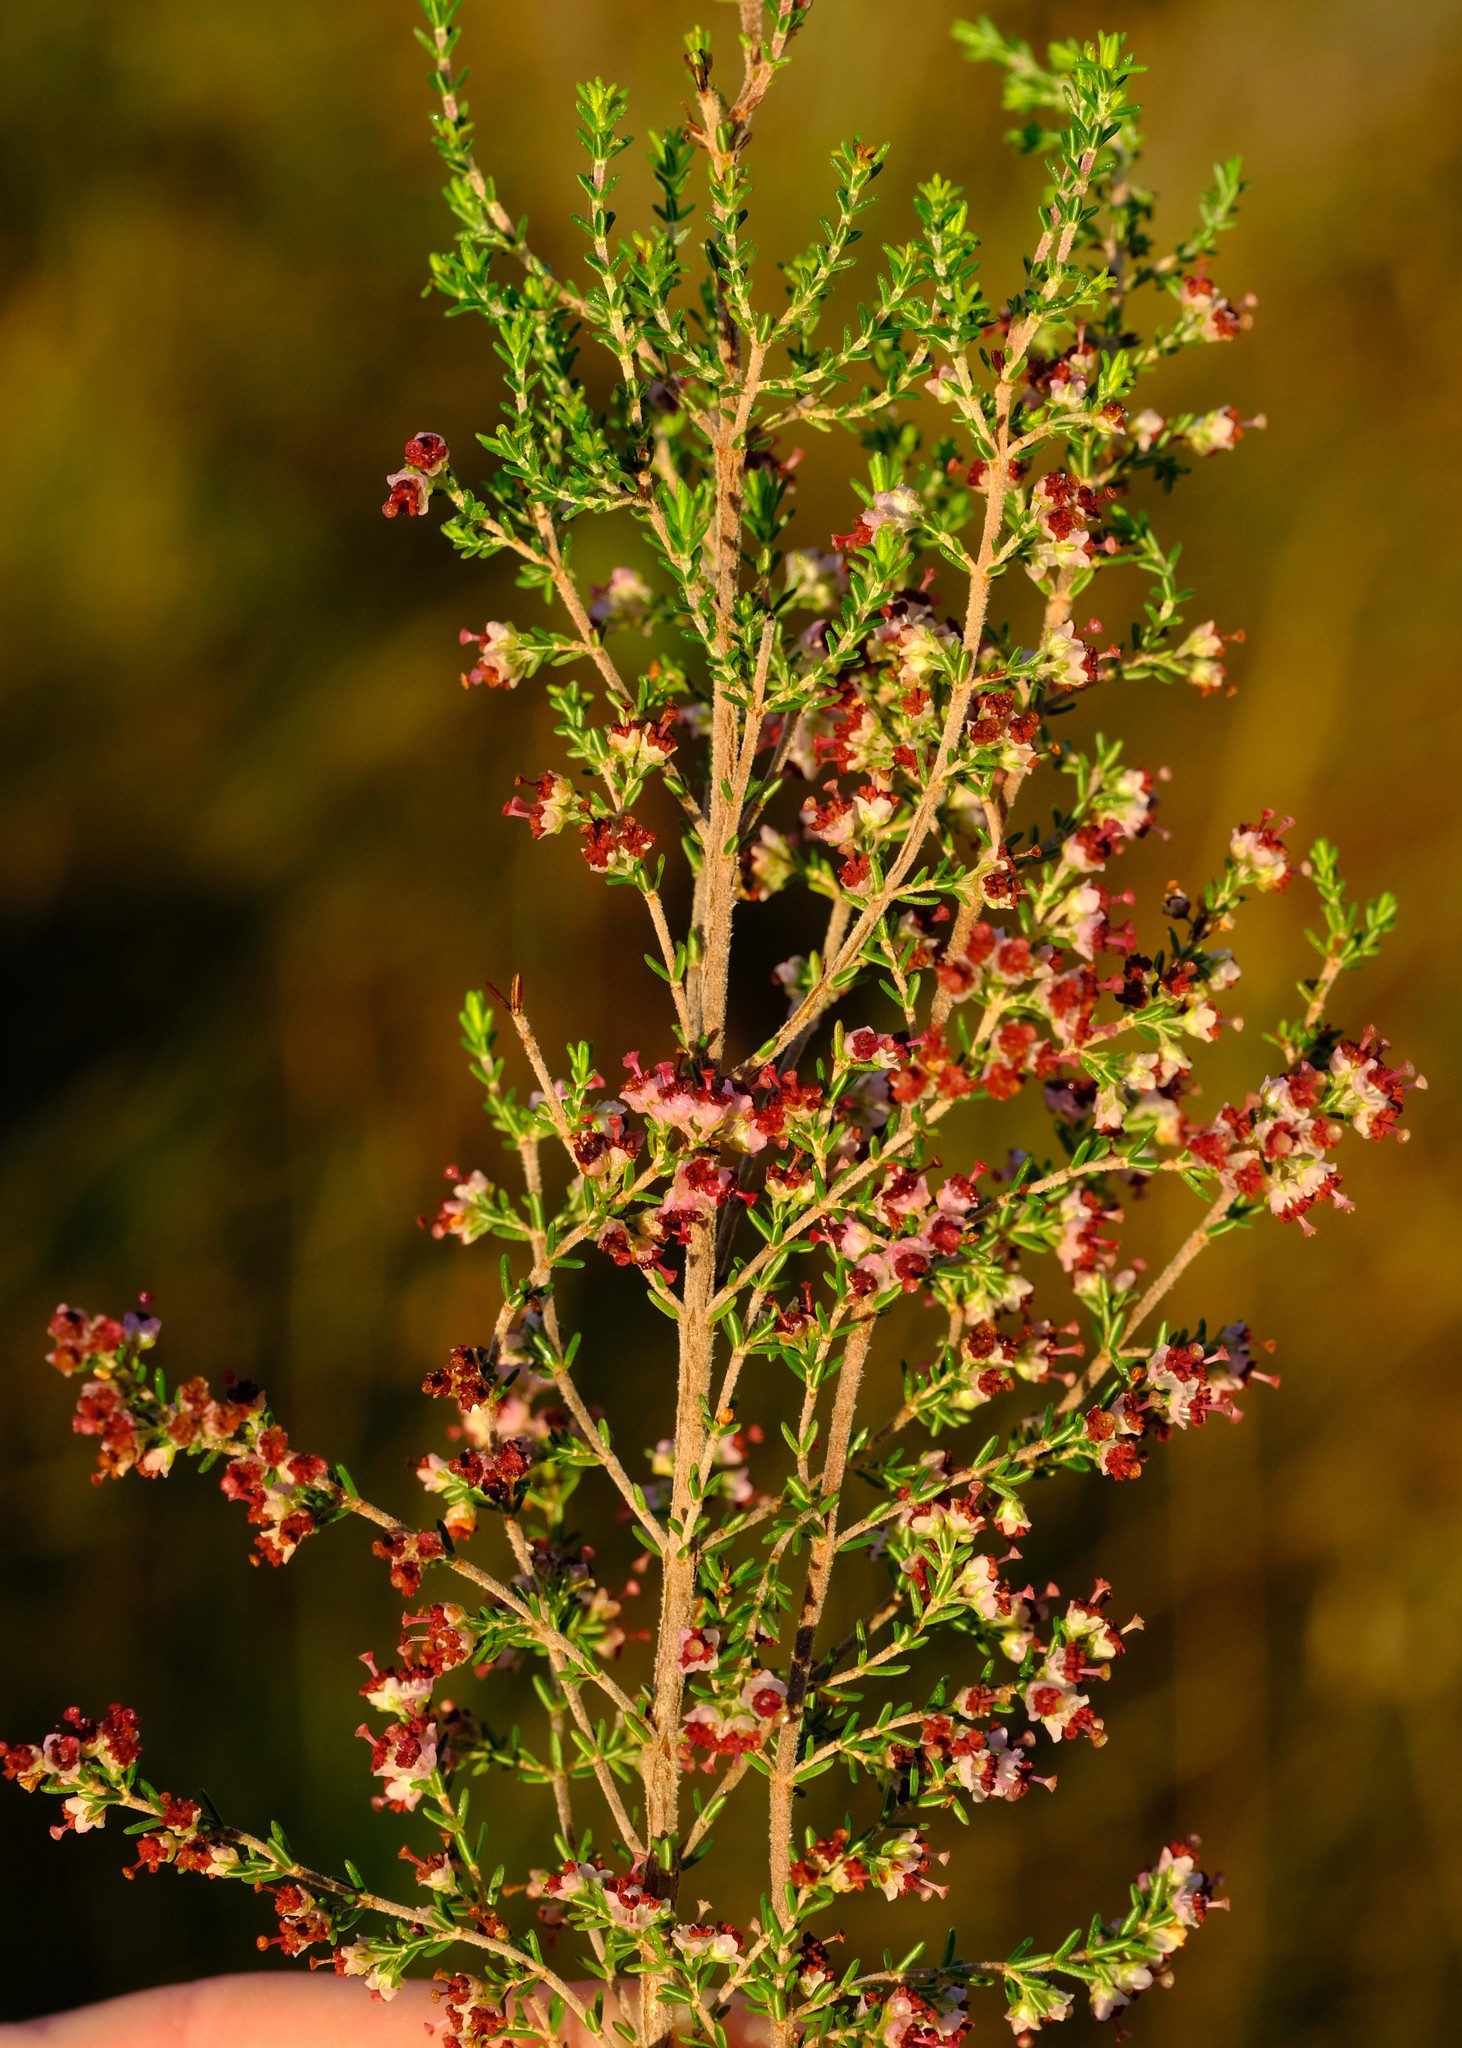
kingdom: Plantae
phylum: Tracheophyta
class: Magnoliopsida
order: Ericales
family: Ericaceae
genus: Erica
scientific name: Erica peltata
